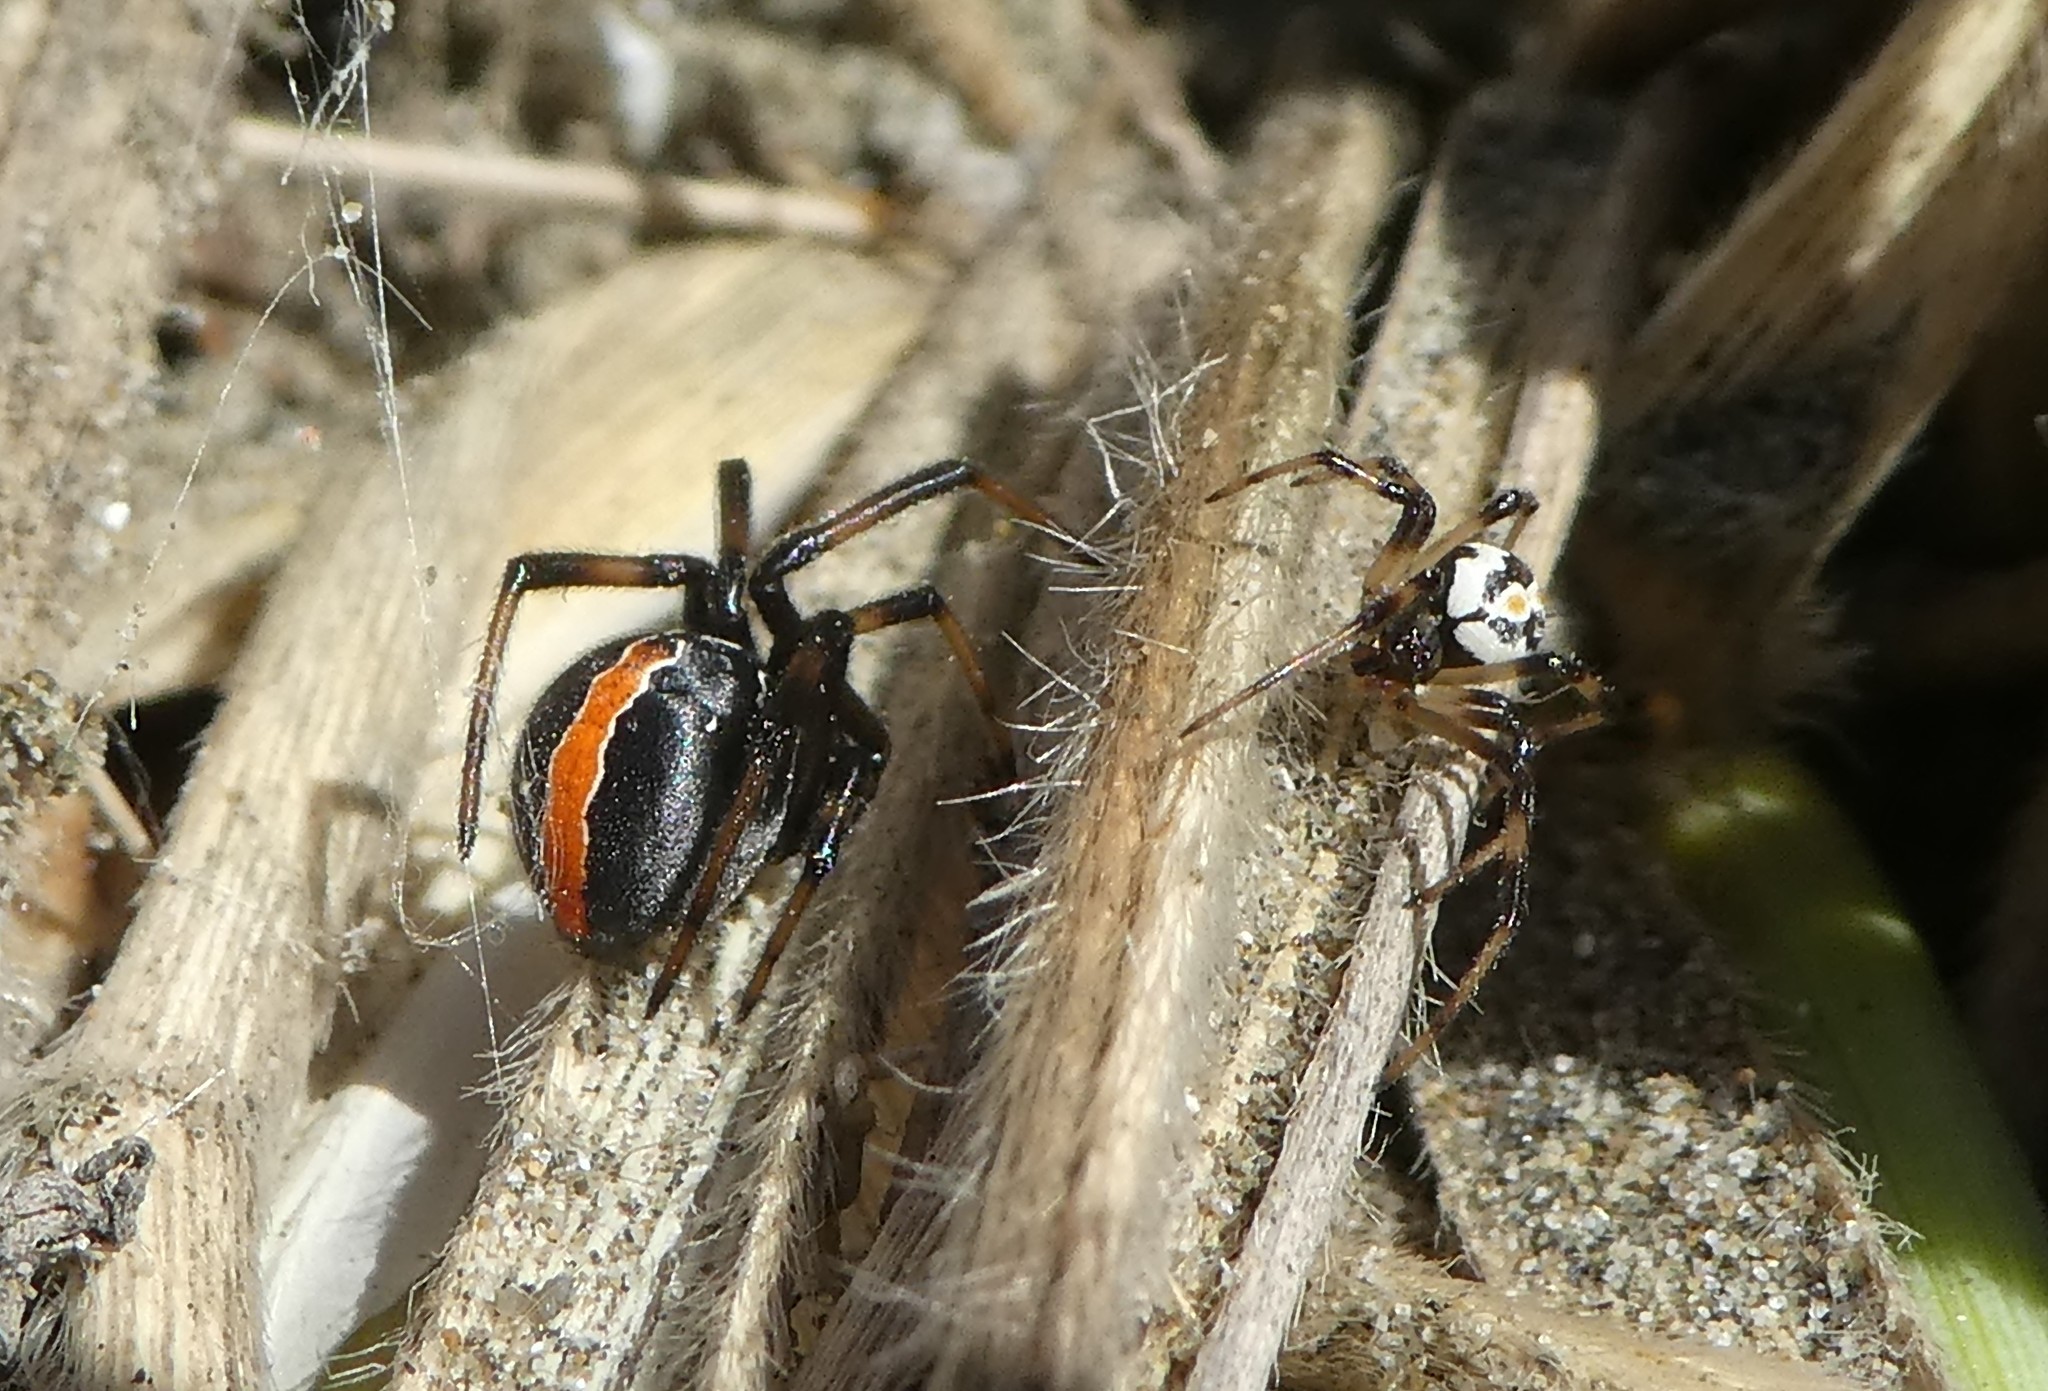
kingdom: Animalia
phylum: Arthropoda
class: Arachnida
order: Araneae
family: Theridiidae
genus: Latrodectus
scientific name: Latrodectus katipo
